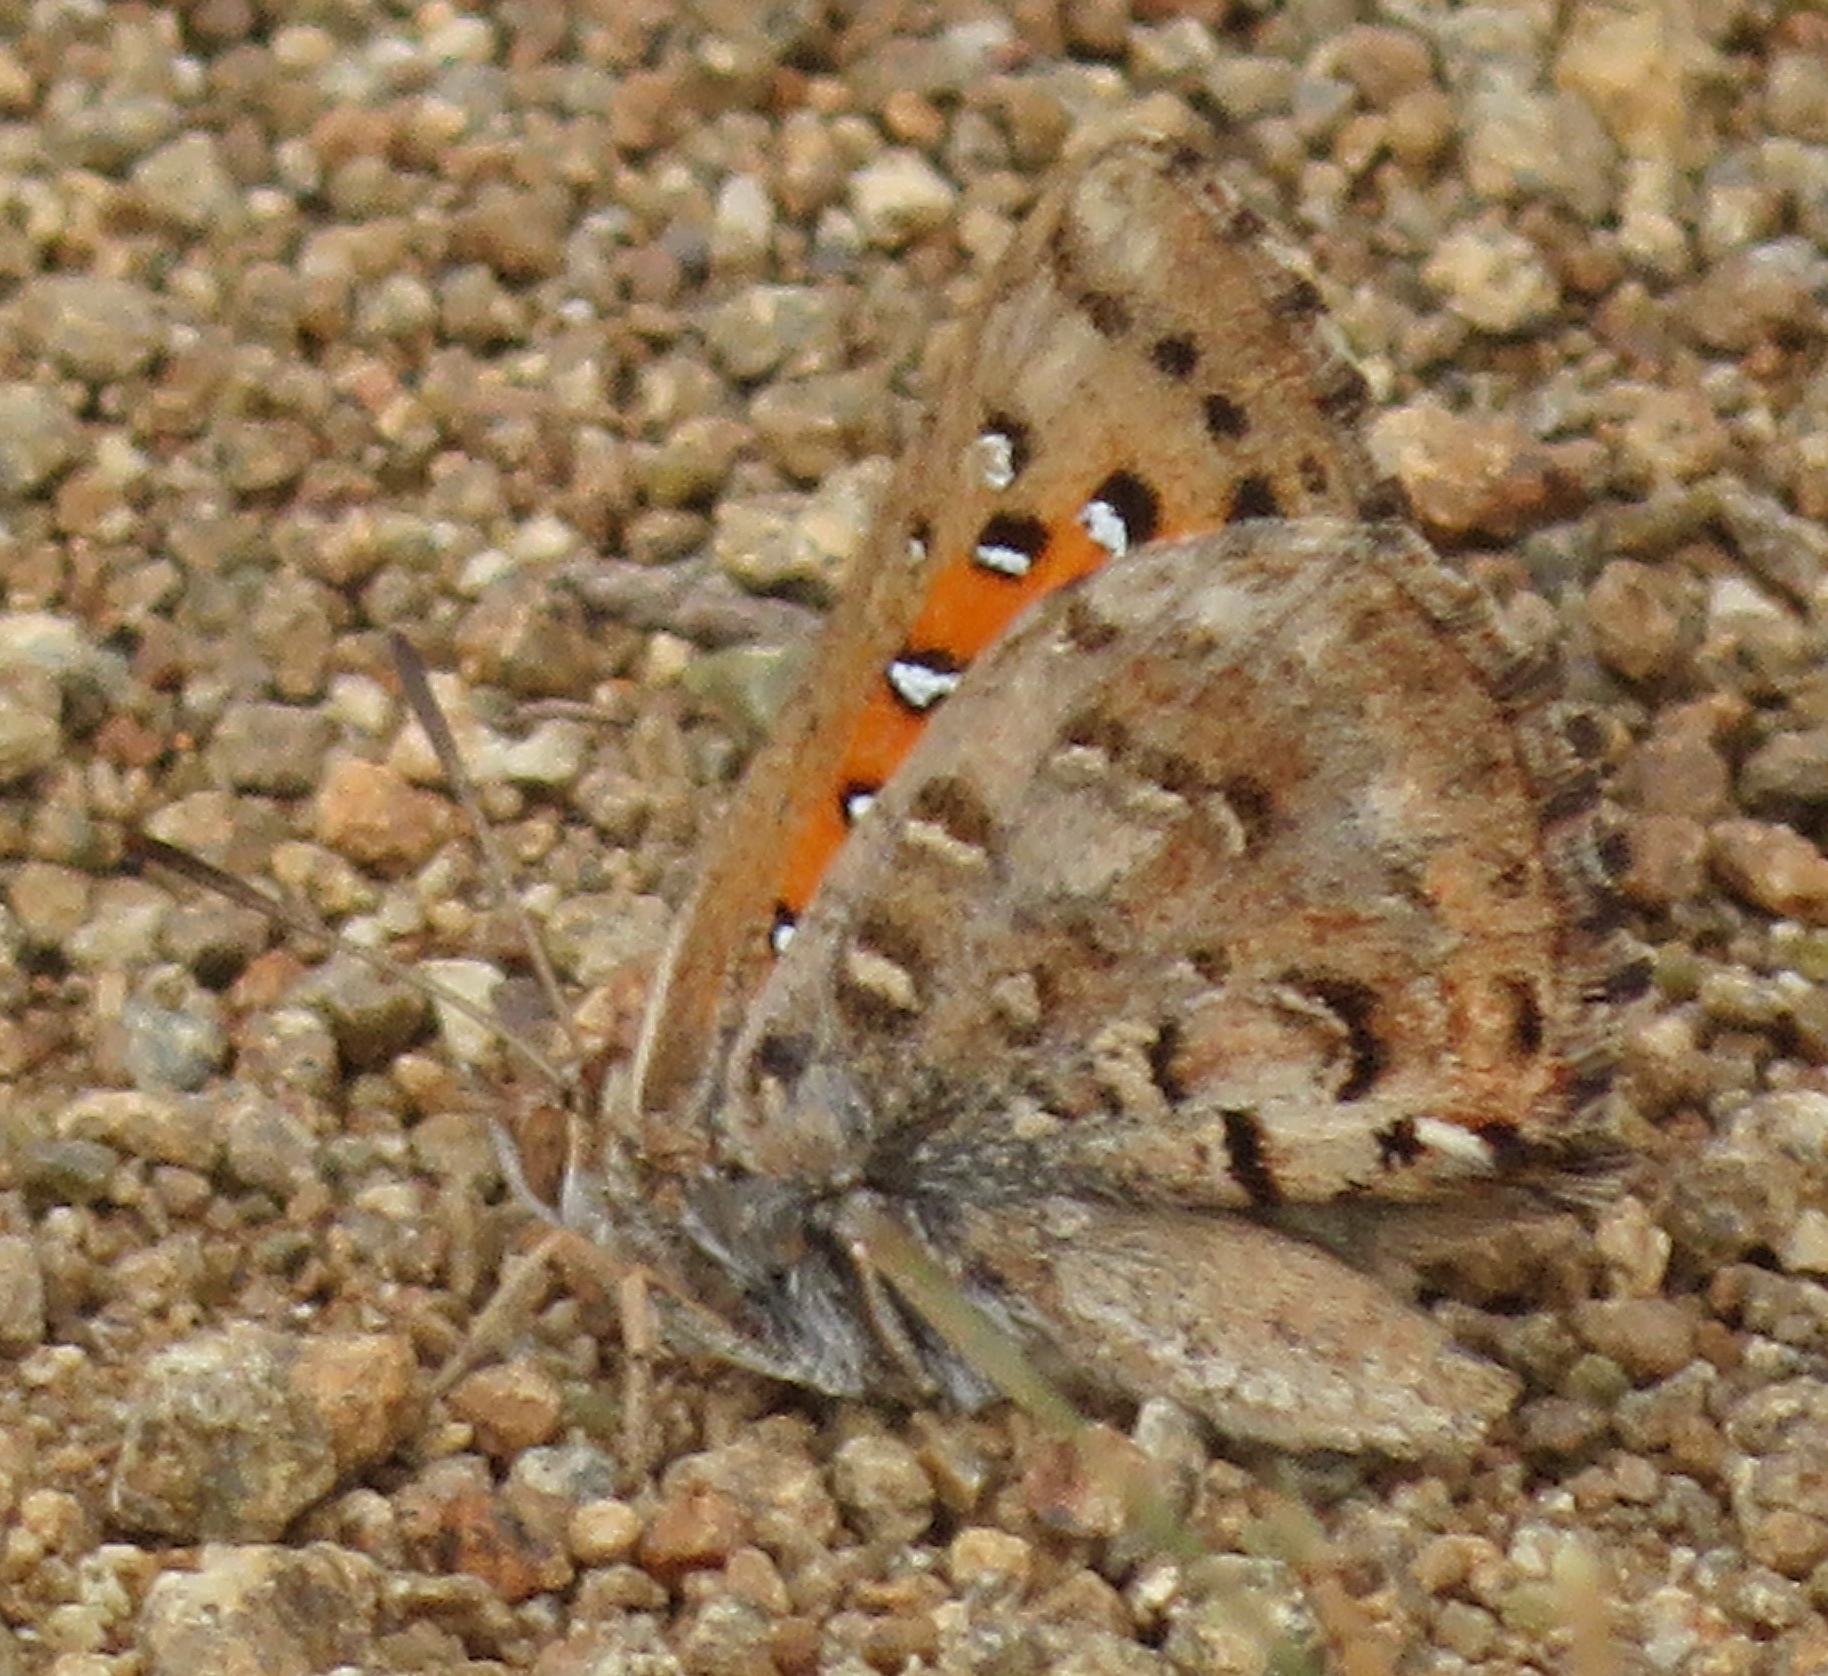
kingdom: Animalia
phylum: Arthropoda
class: Insecta
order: Lepidoptera
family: Lycaenidae
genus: Aloeides
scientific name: Aloeides pierus
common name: Dull copper
